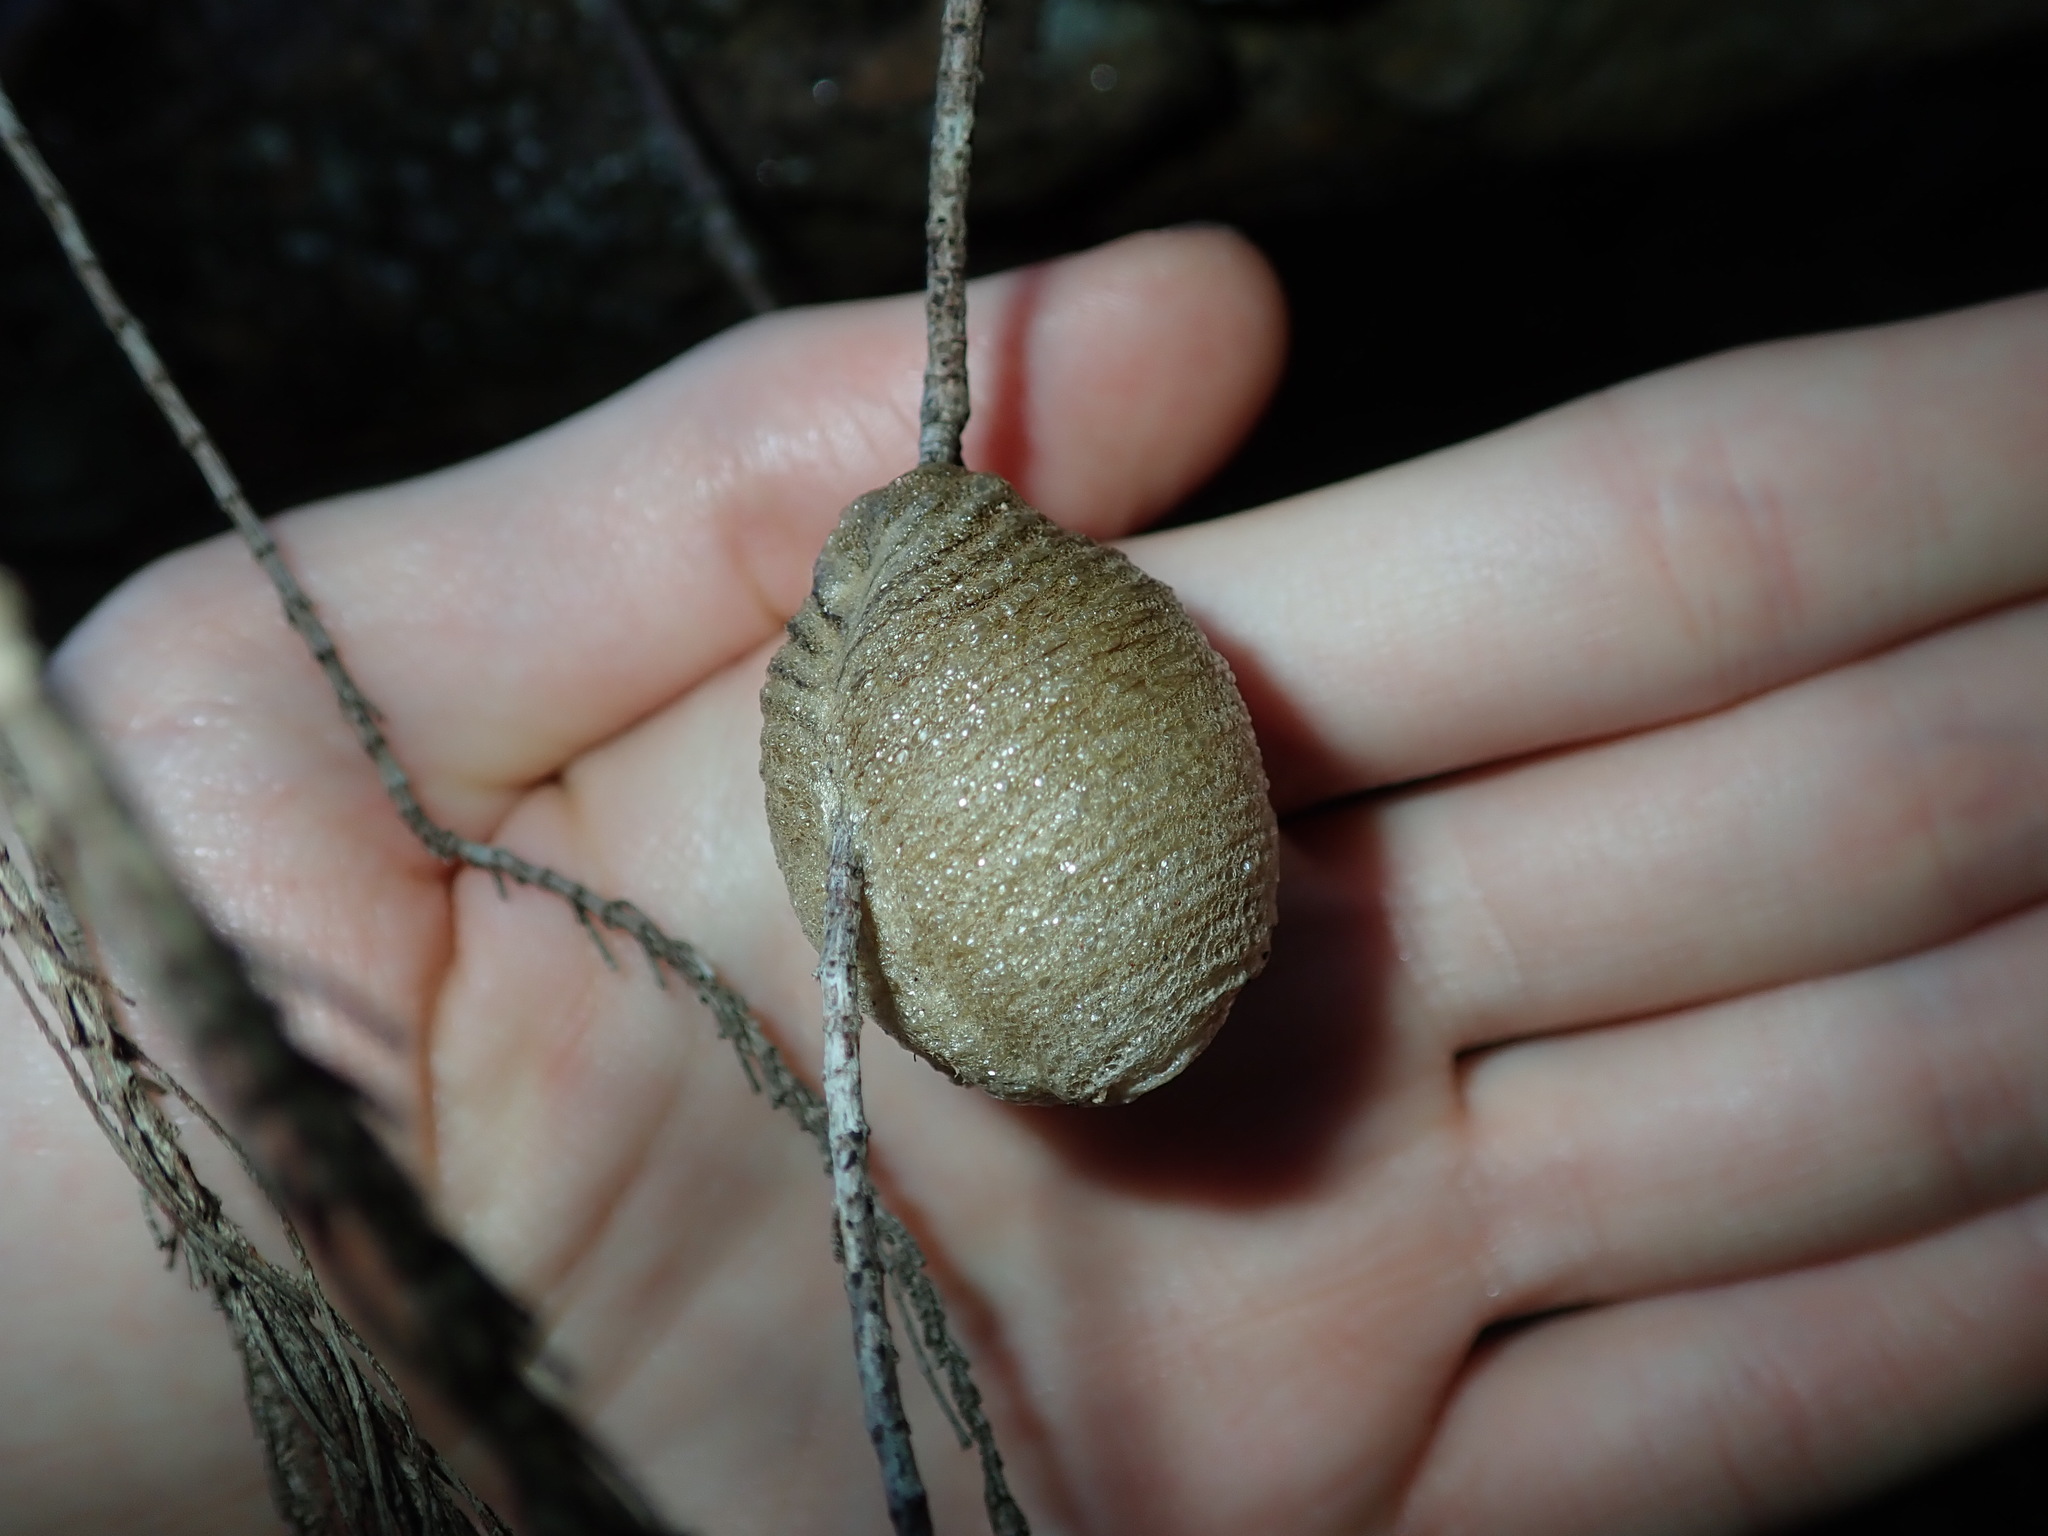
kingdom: Animalia
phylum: Arthropoda
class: Insecta
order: Mantodea
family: Mantidae
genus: Archimantis
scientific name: Archimantis latistyla
